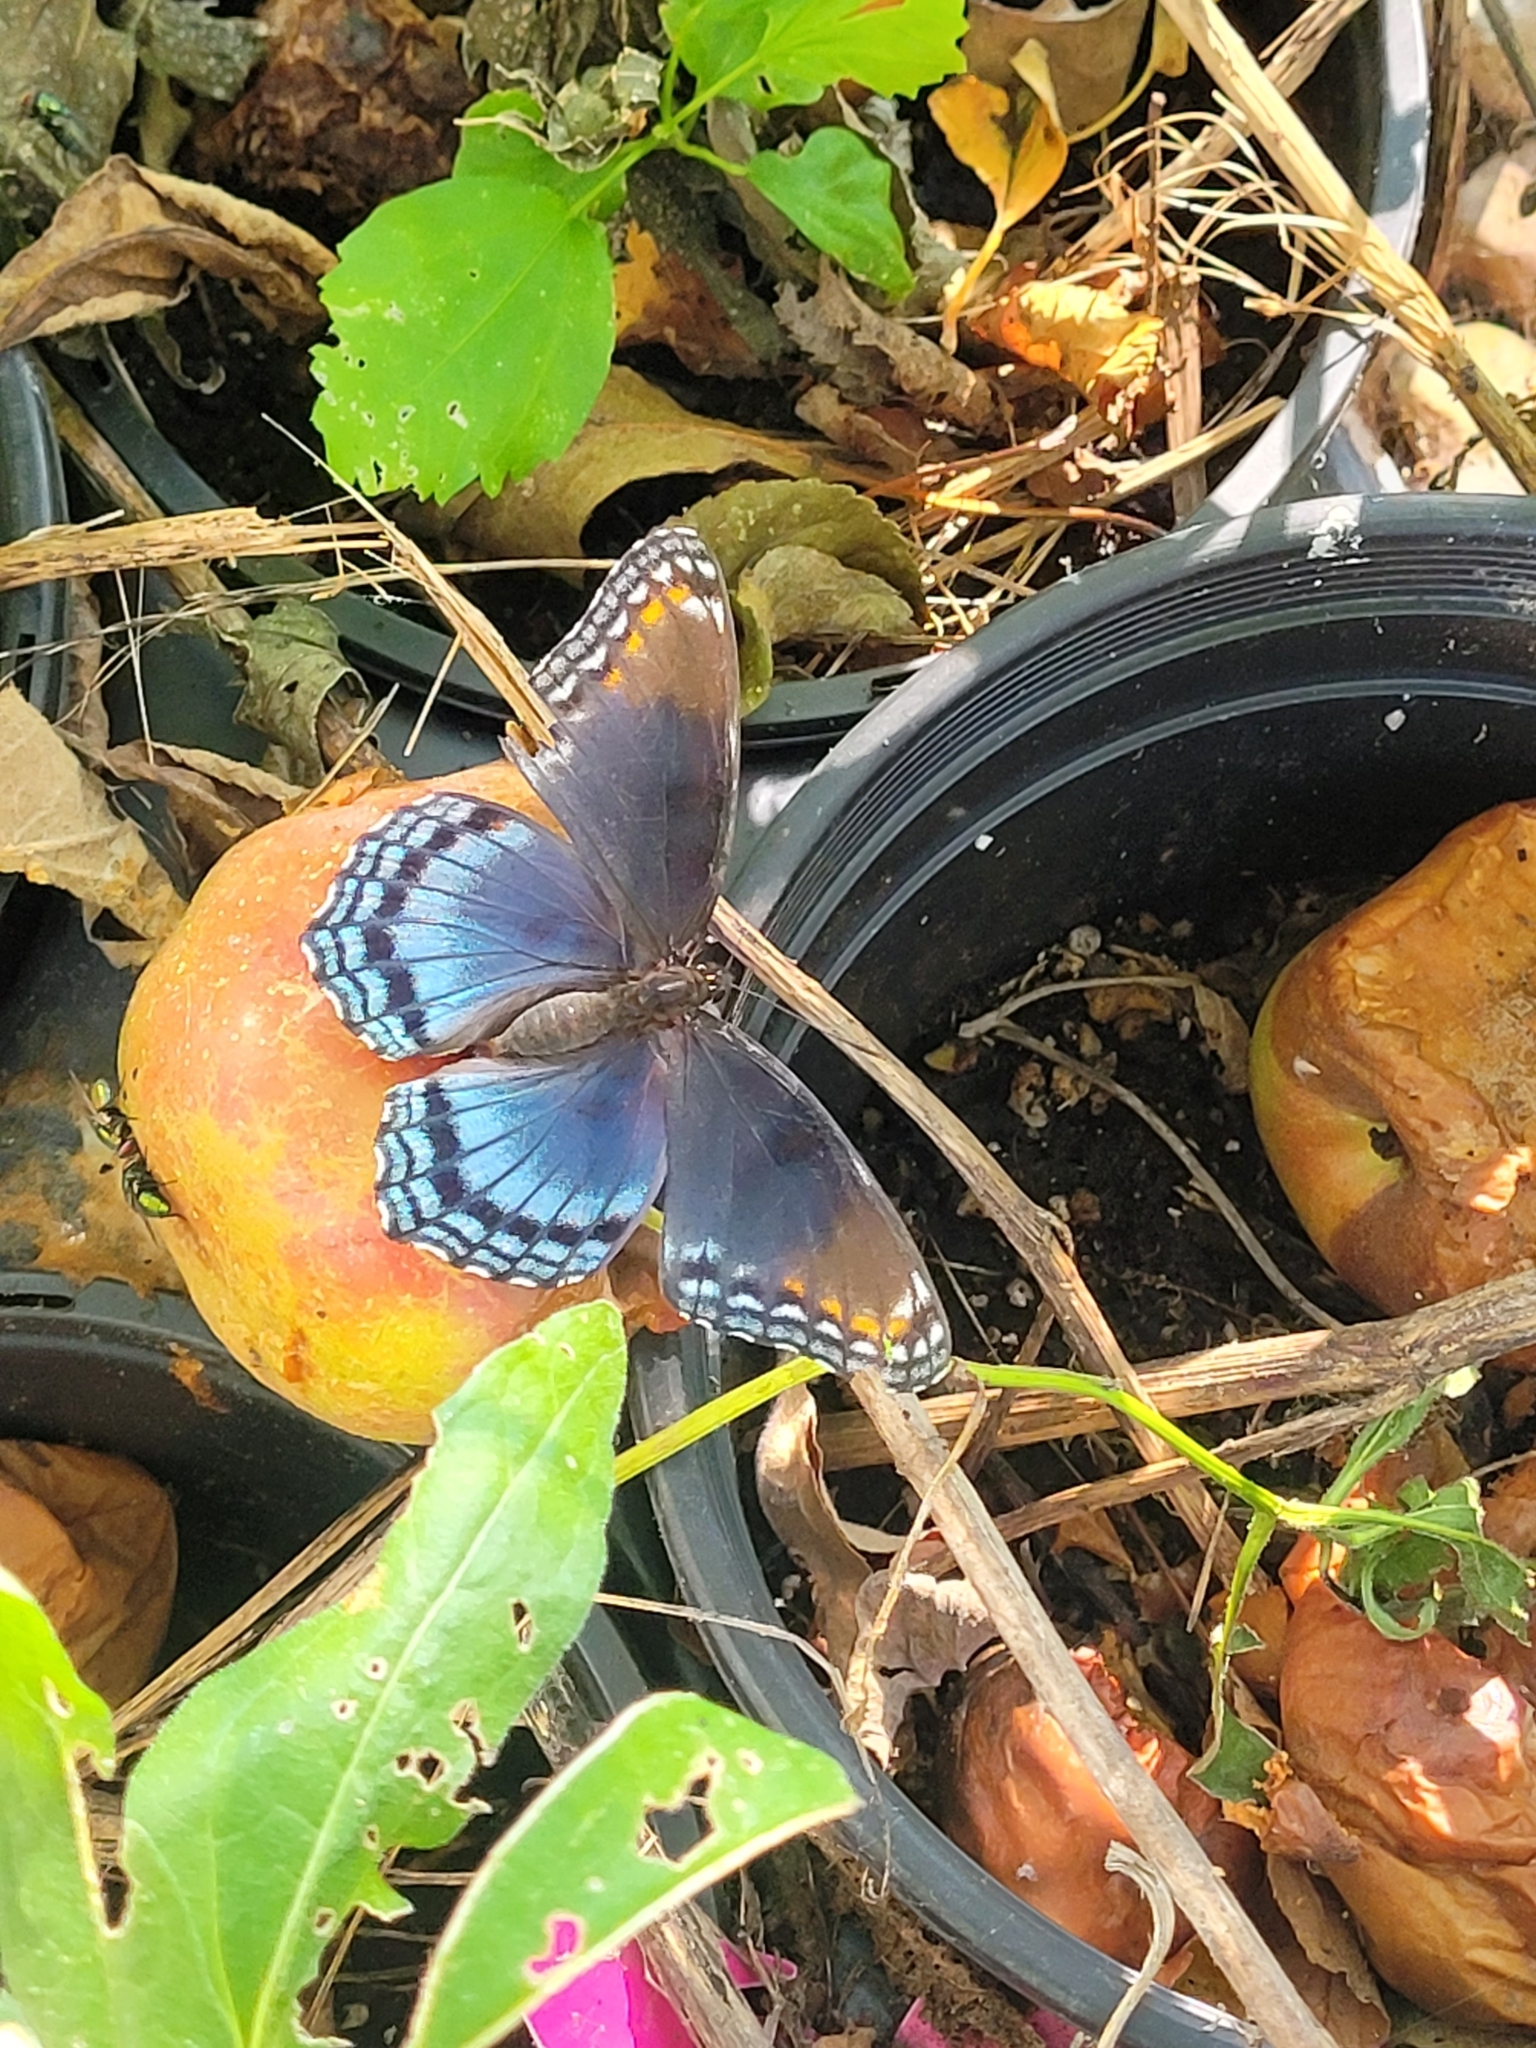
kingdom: Animalia
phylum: Arthropoda
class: Insecta
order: Lepidoptera
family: Nymphalidae
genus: Limenitis
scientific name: Limenitis astyanax
